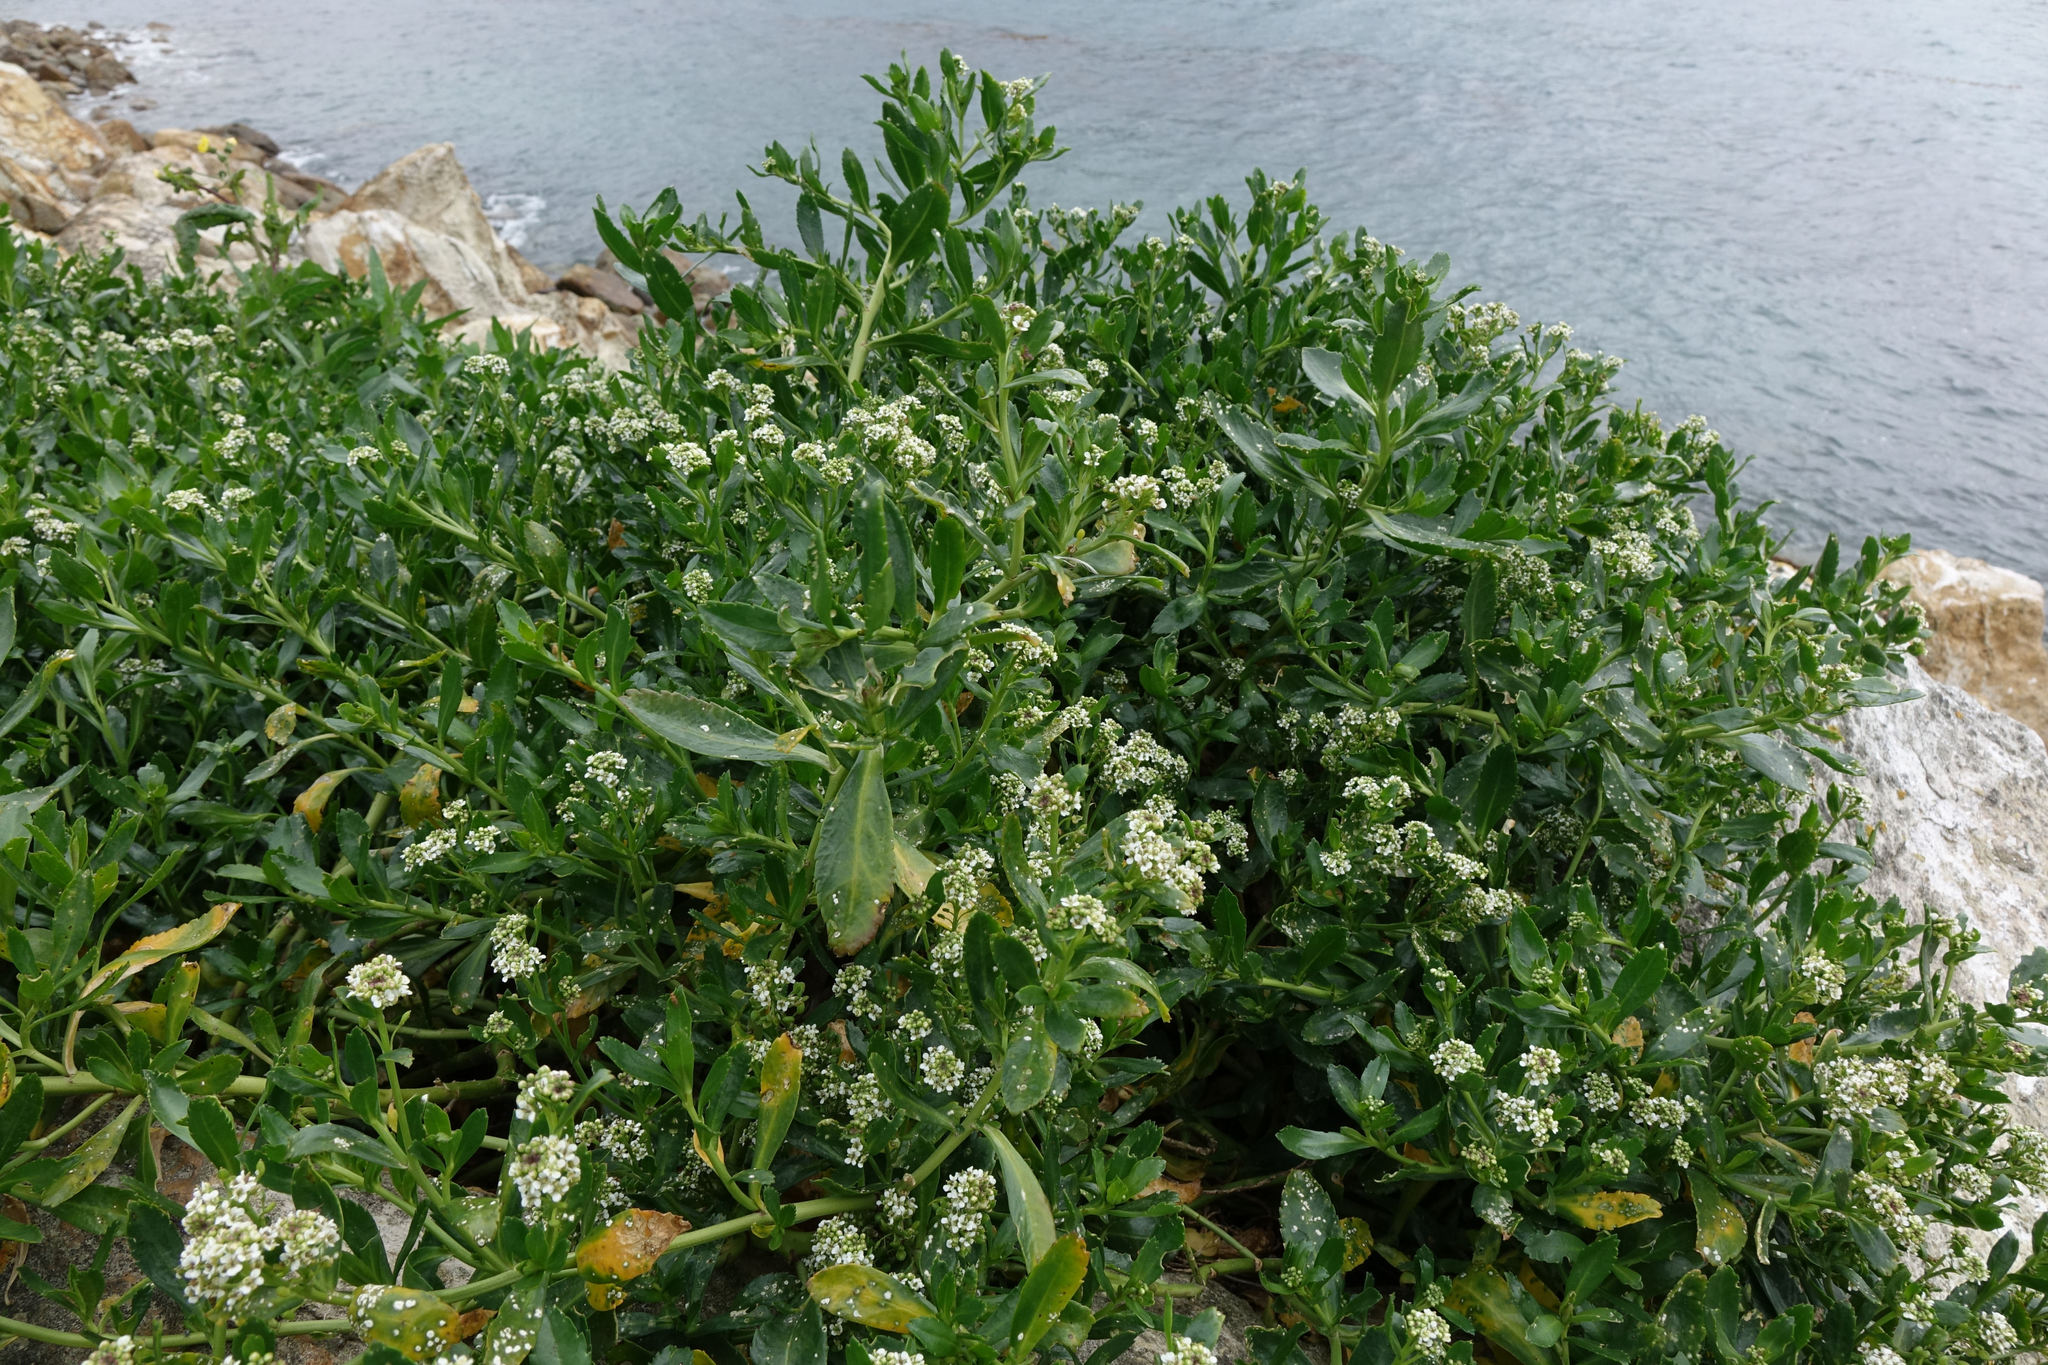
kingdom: Plantae
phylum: Tracheophyta
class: Magnoliopsida
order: Brassicales
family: Brassicaceae
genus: Lepidium
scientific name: Lepidium crassum
